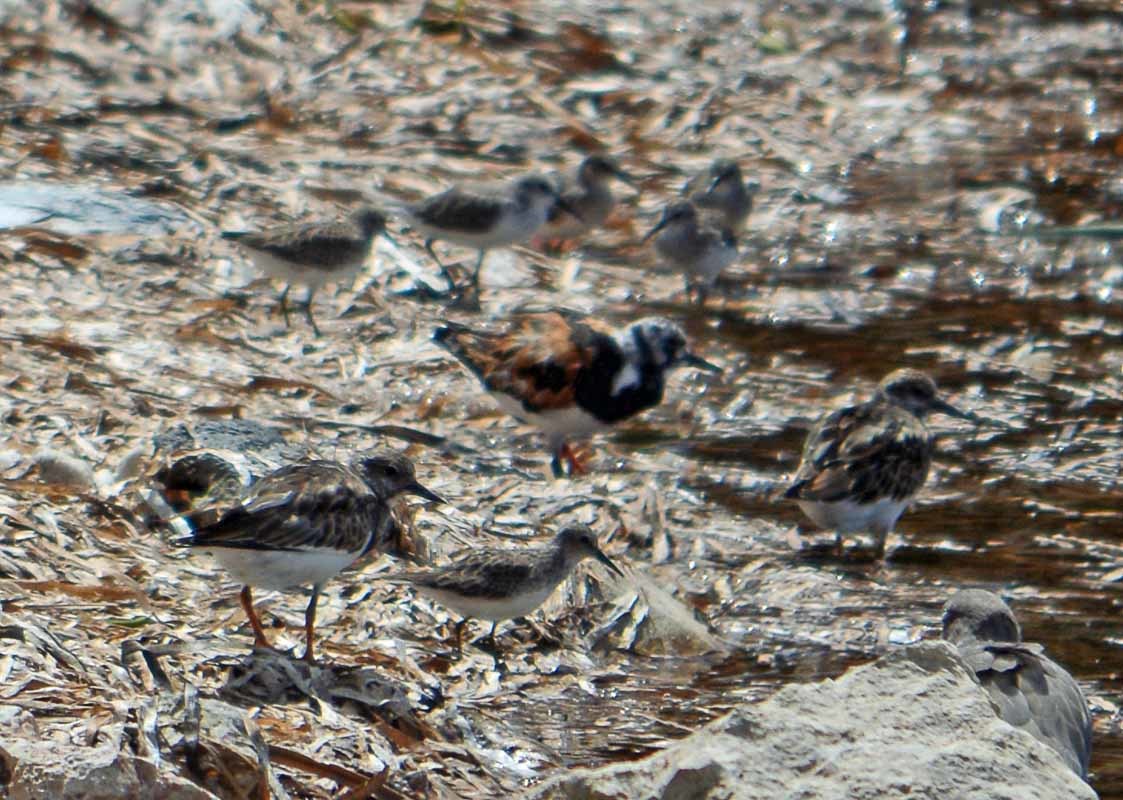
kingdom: Animalia
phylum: Chordata
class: Aves
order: Charadriiformes
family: Scolopacidae
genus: Arenaria
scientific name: Arenaria interpres
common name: Ruddy turnstone
